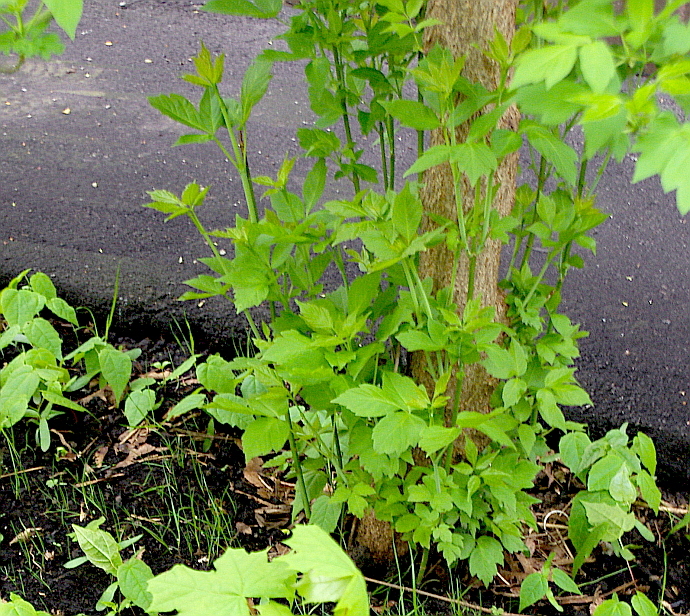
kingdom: Plantae
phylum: Tracheophyta
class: Magnoliopsida
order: Sapindales
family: Sapindaceae
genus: Acer
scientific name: Acer negundo
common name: Ashleaf maple
